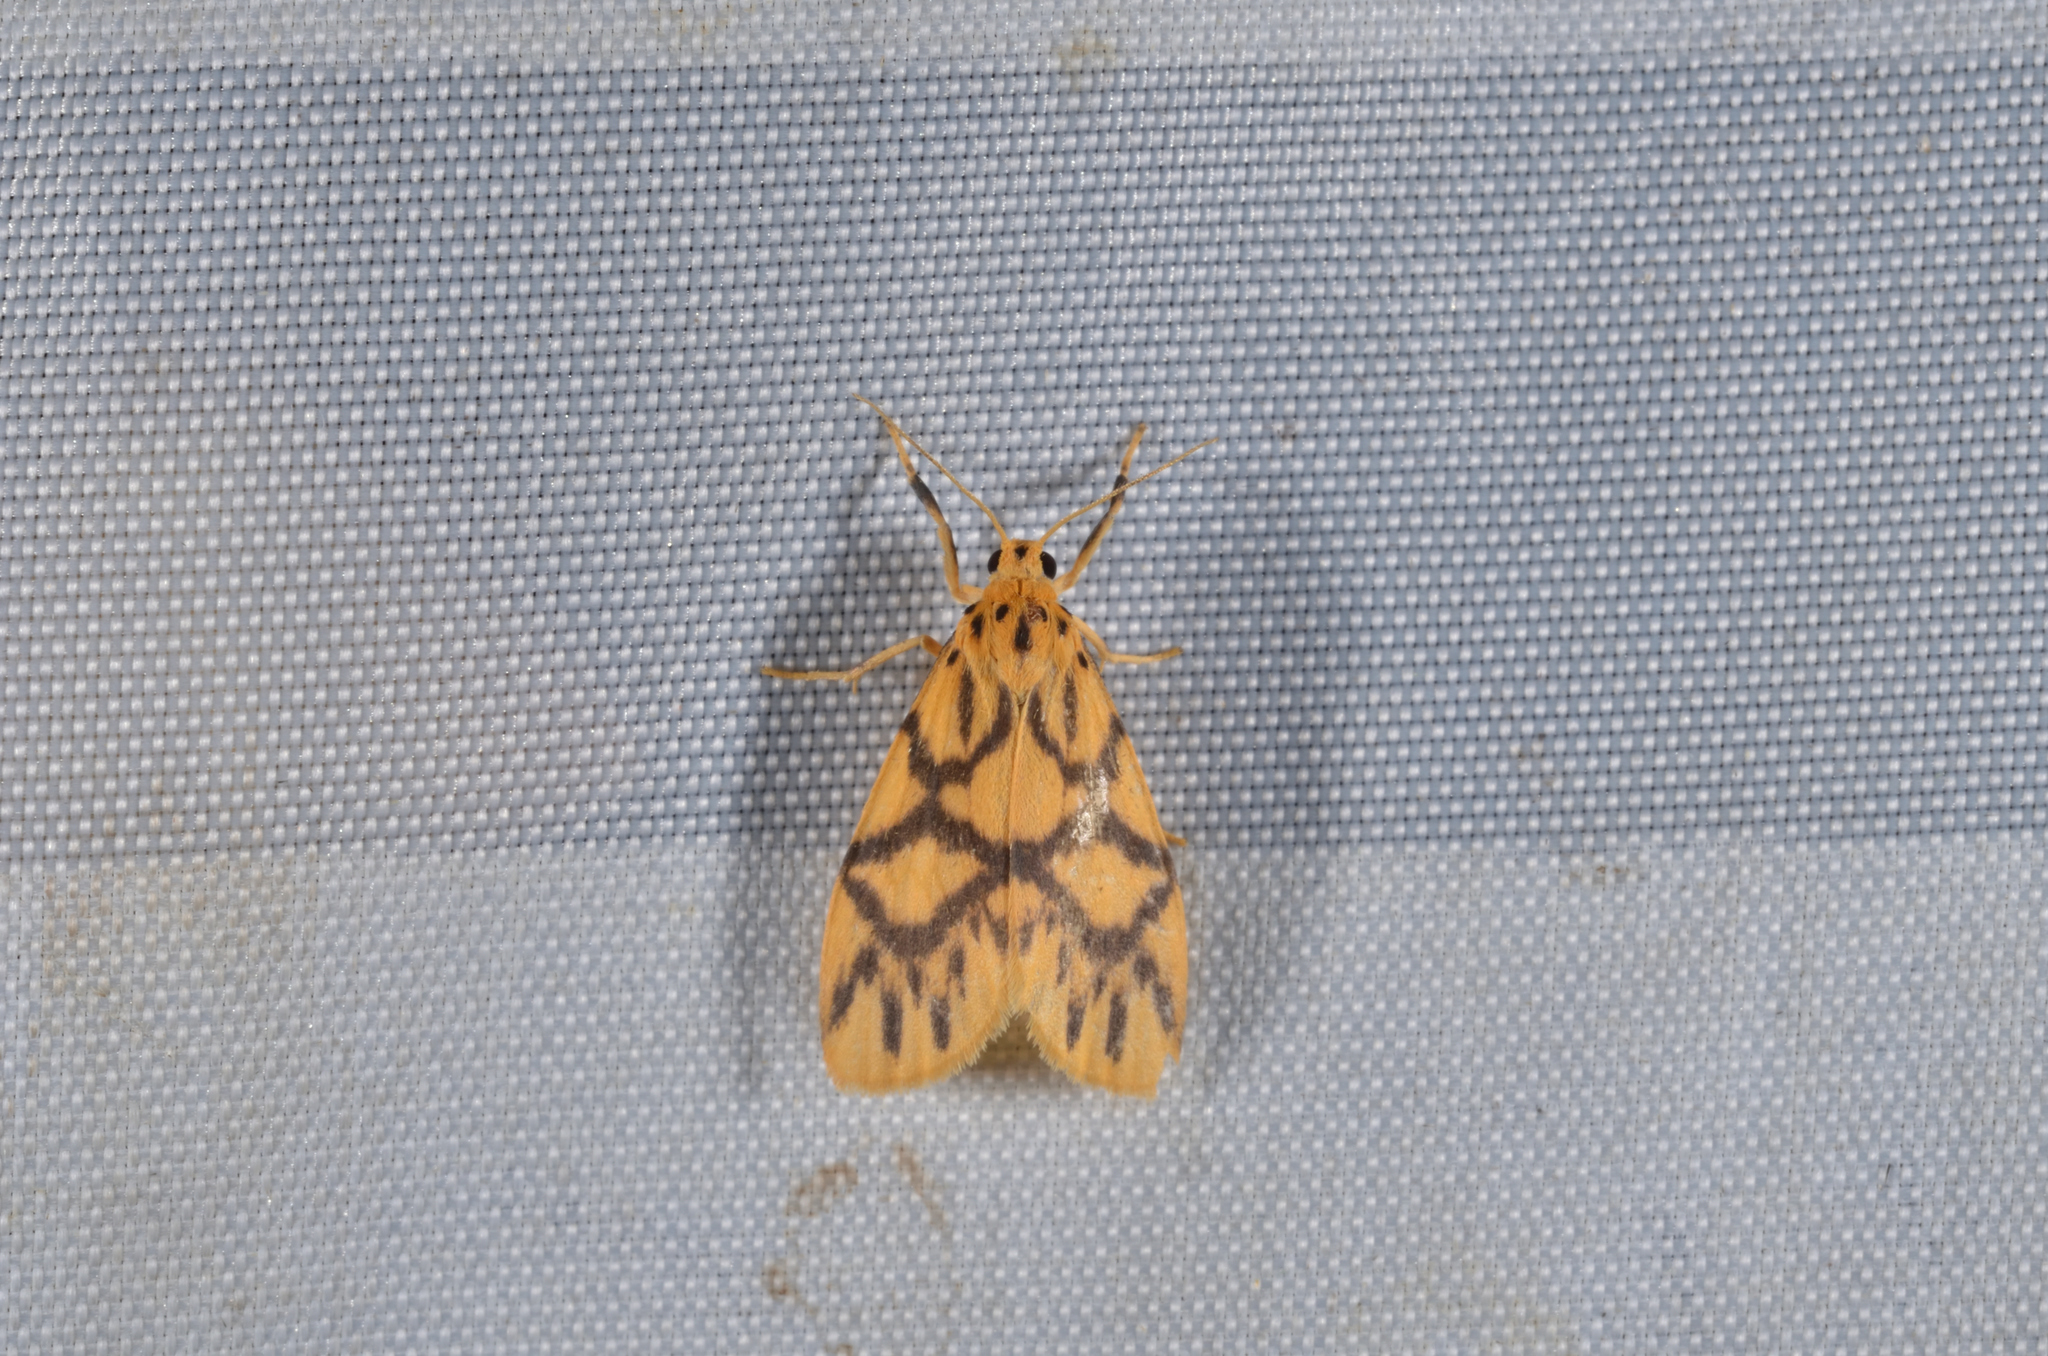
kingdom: Animalia
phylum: Arthropoda
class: Insecta
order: Lepidoptera
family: Erebidae
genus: Asura
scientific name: Asura toxodes
